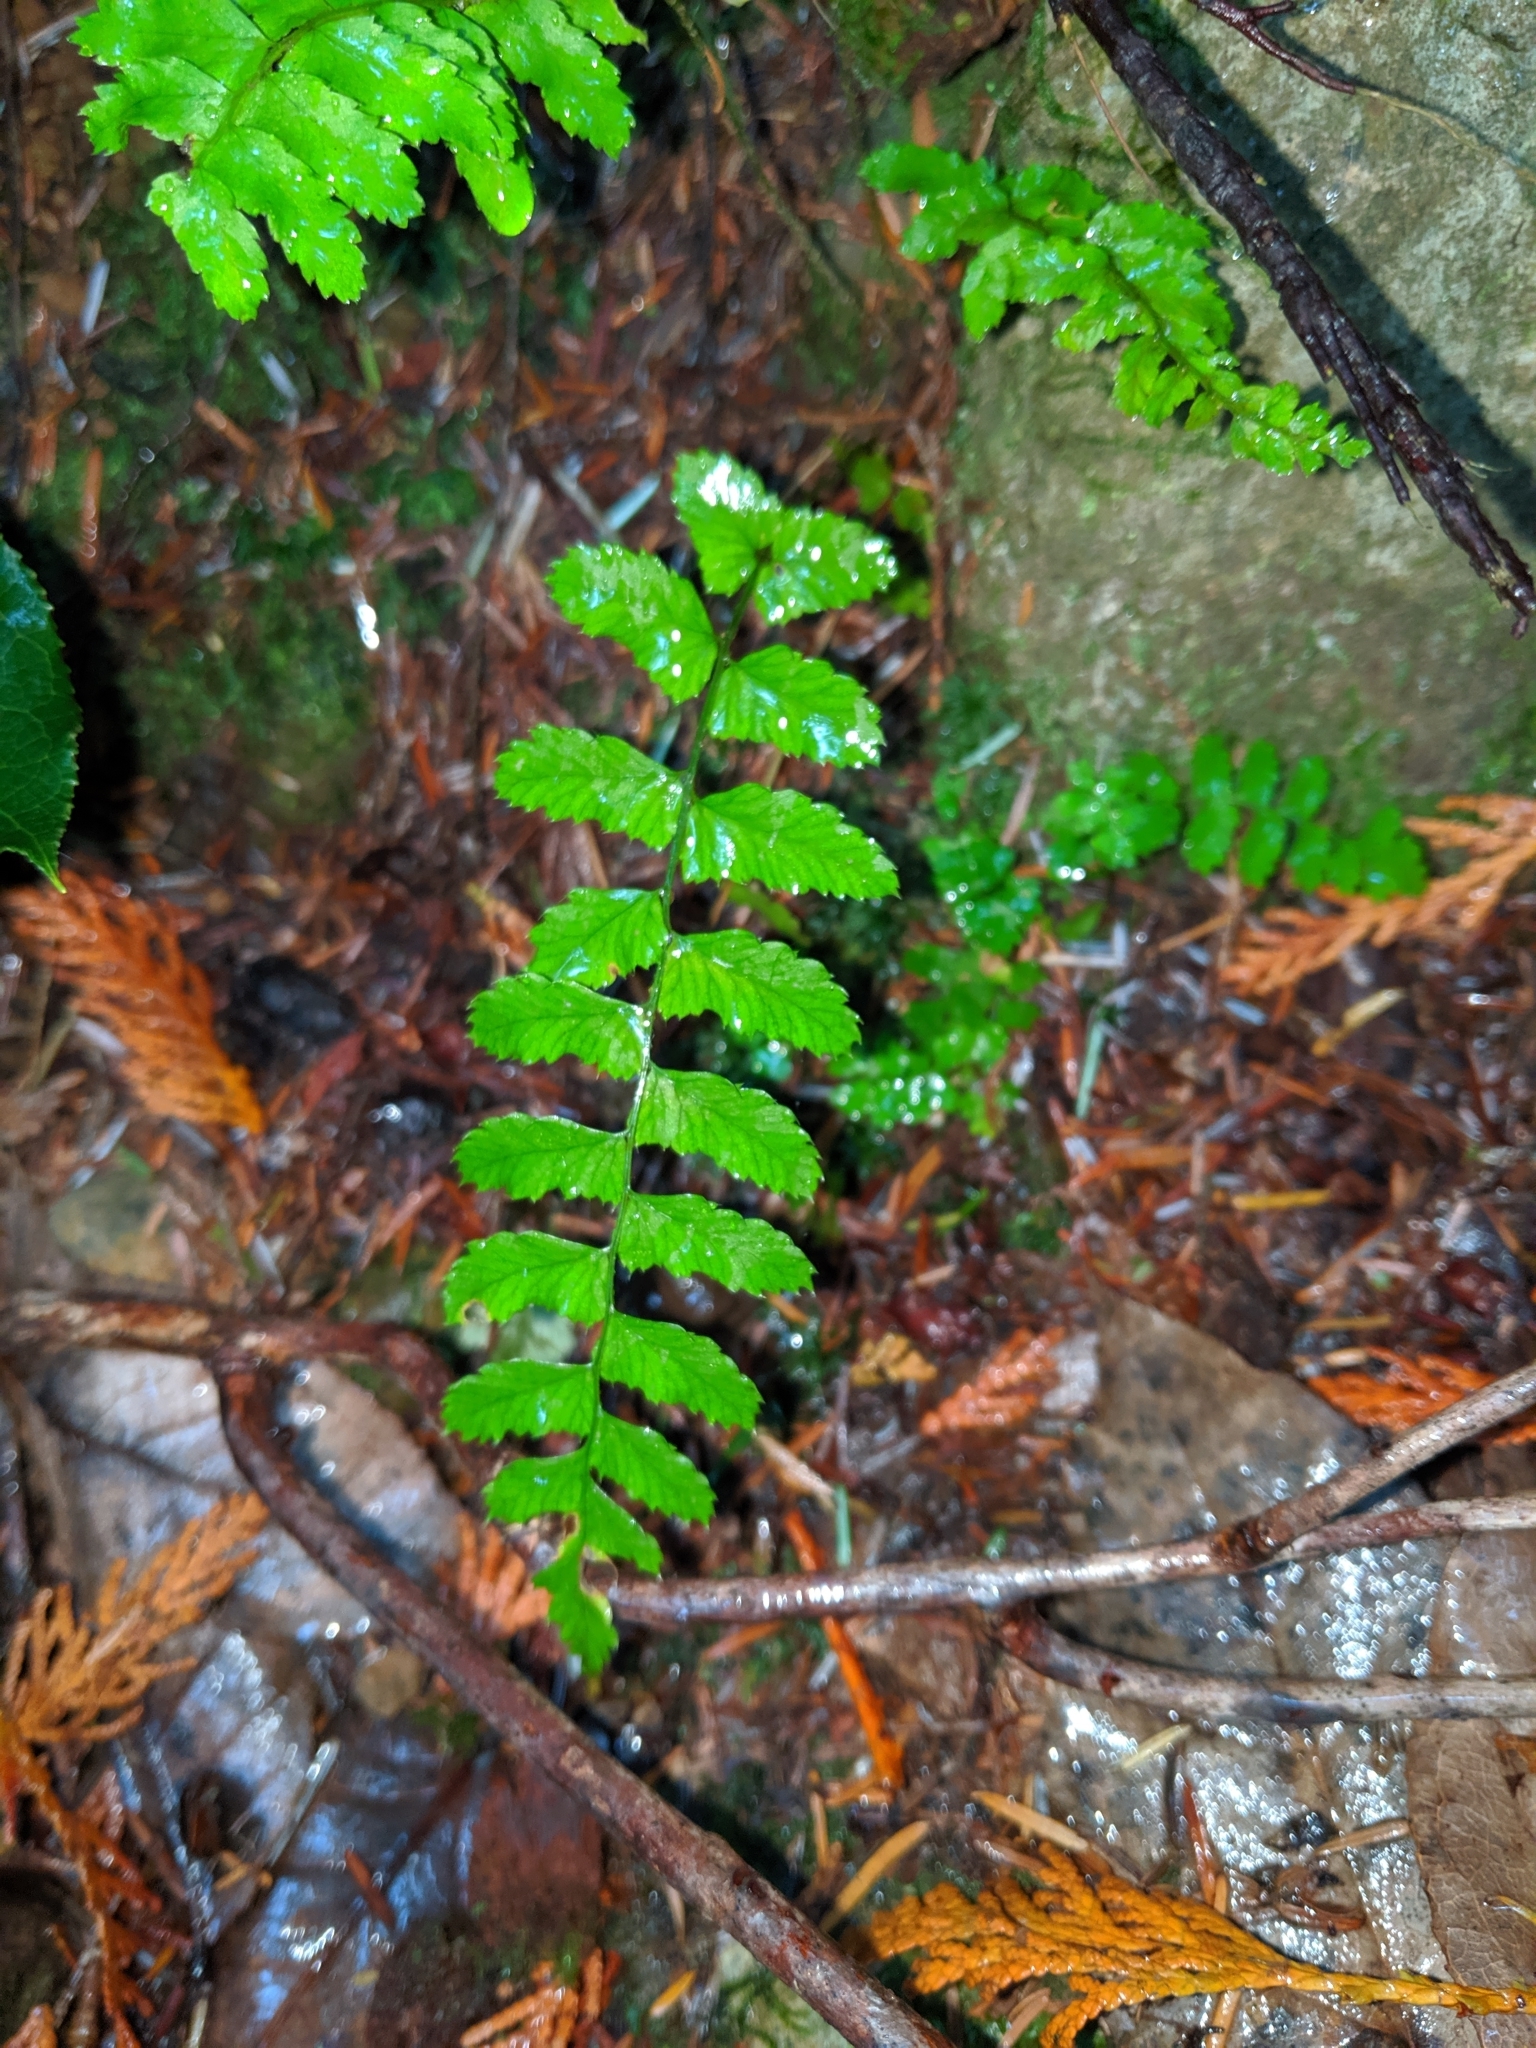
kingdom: Plantae
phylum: Tracheophyta
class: Polypodiopsida
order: Polypodiales
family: Dryopteridaceae
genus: Polystichum
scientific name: Polystichum munitum
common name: Western sword-fern
